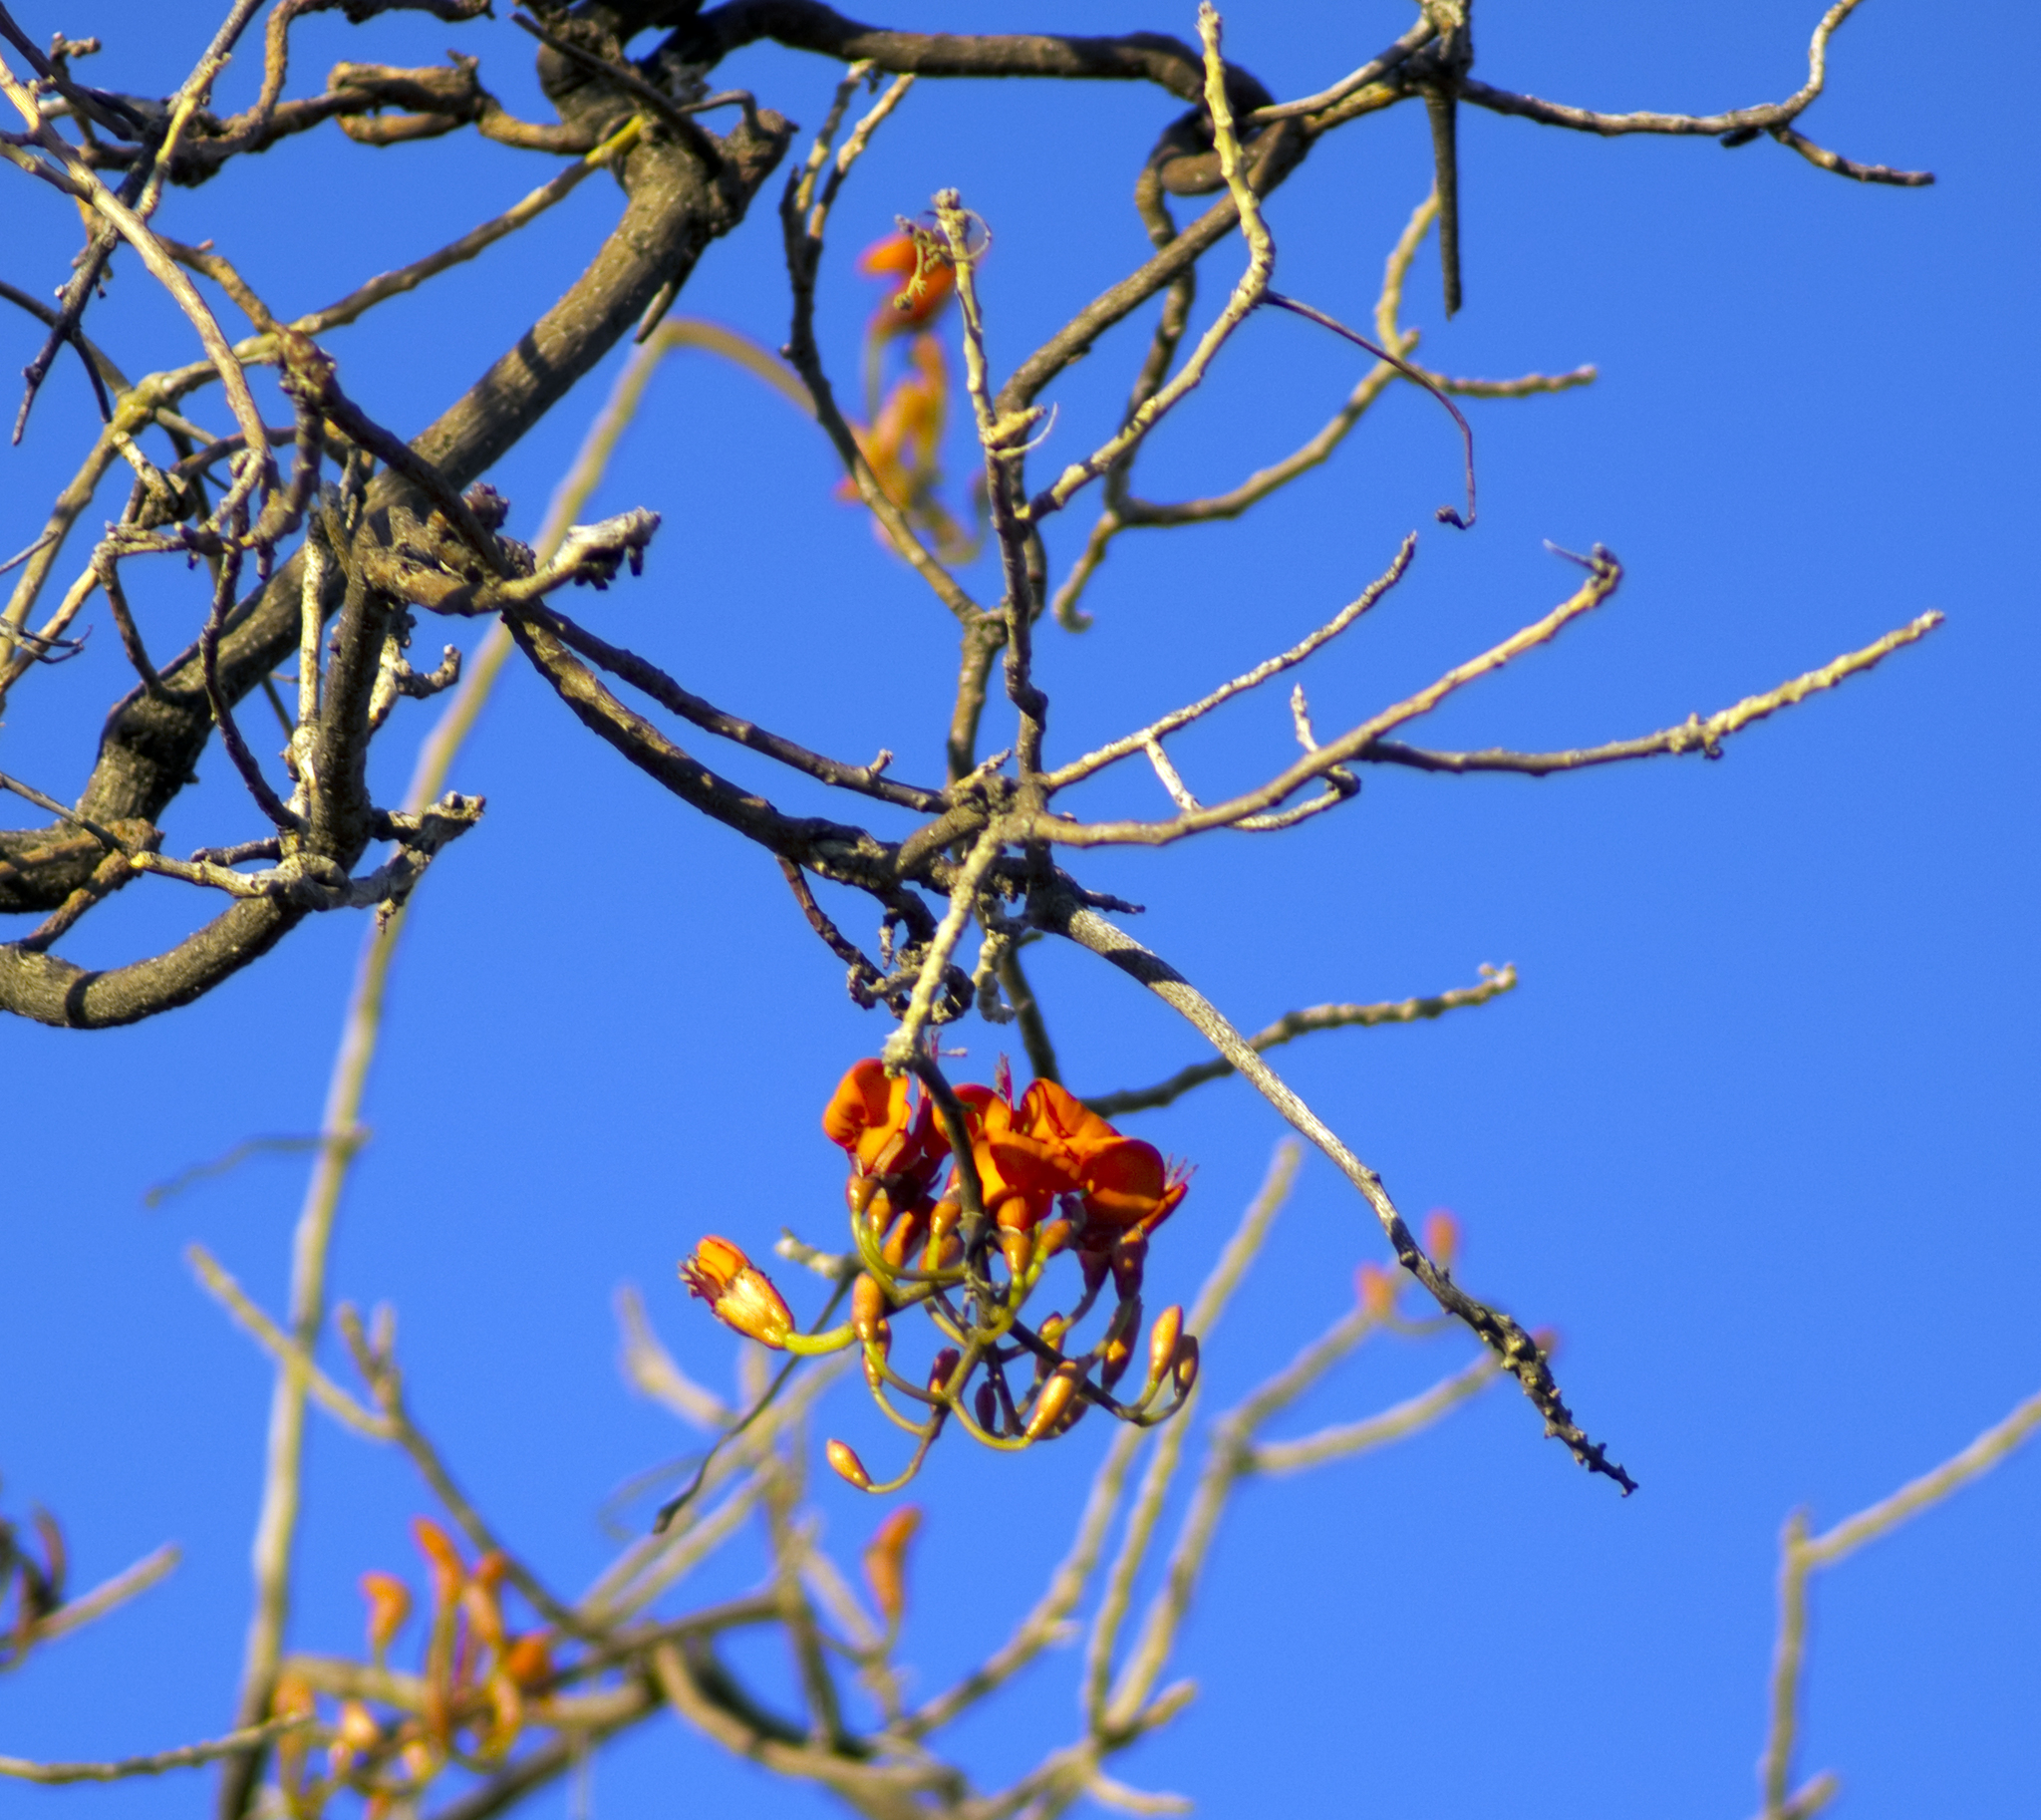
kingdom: Plantae
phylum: Tracheophyta
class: Magnoliopsida
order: Fabales
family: Fabaceae
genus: Erythrina
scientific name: Erythrina vespertilio
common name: Bat-wing coral tree
